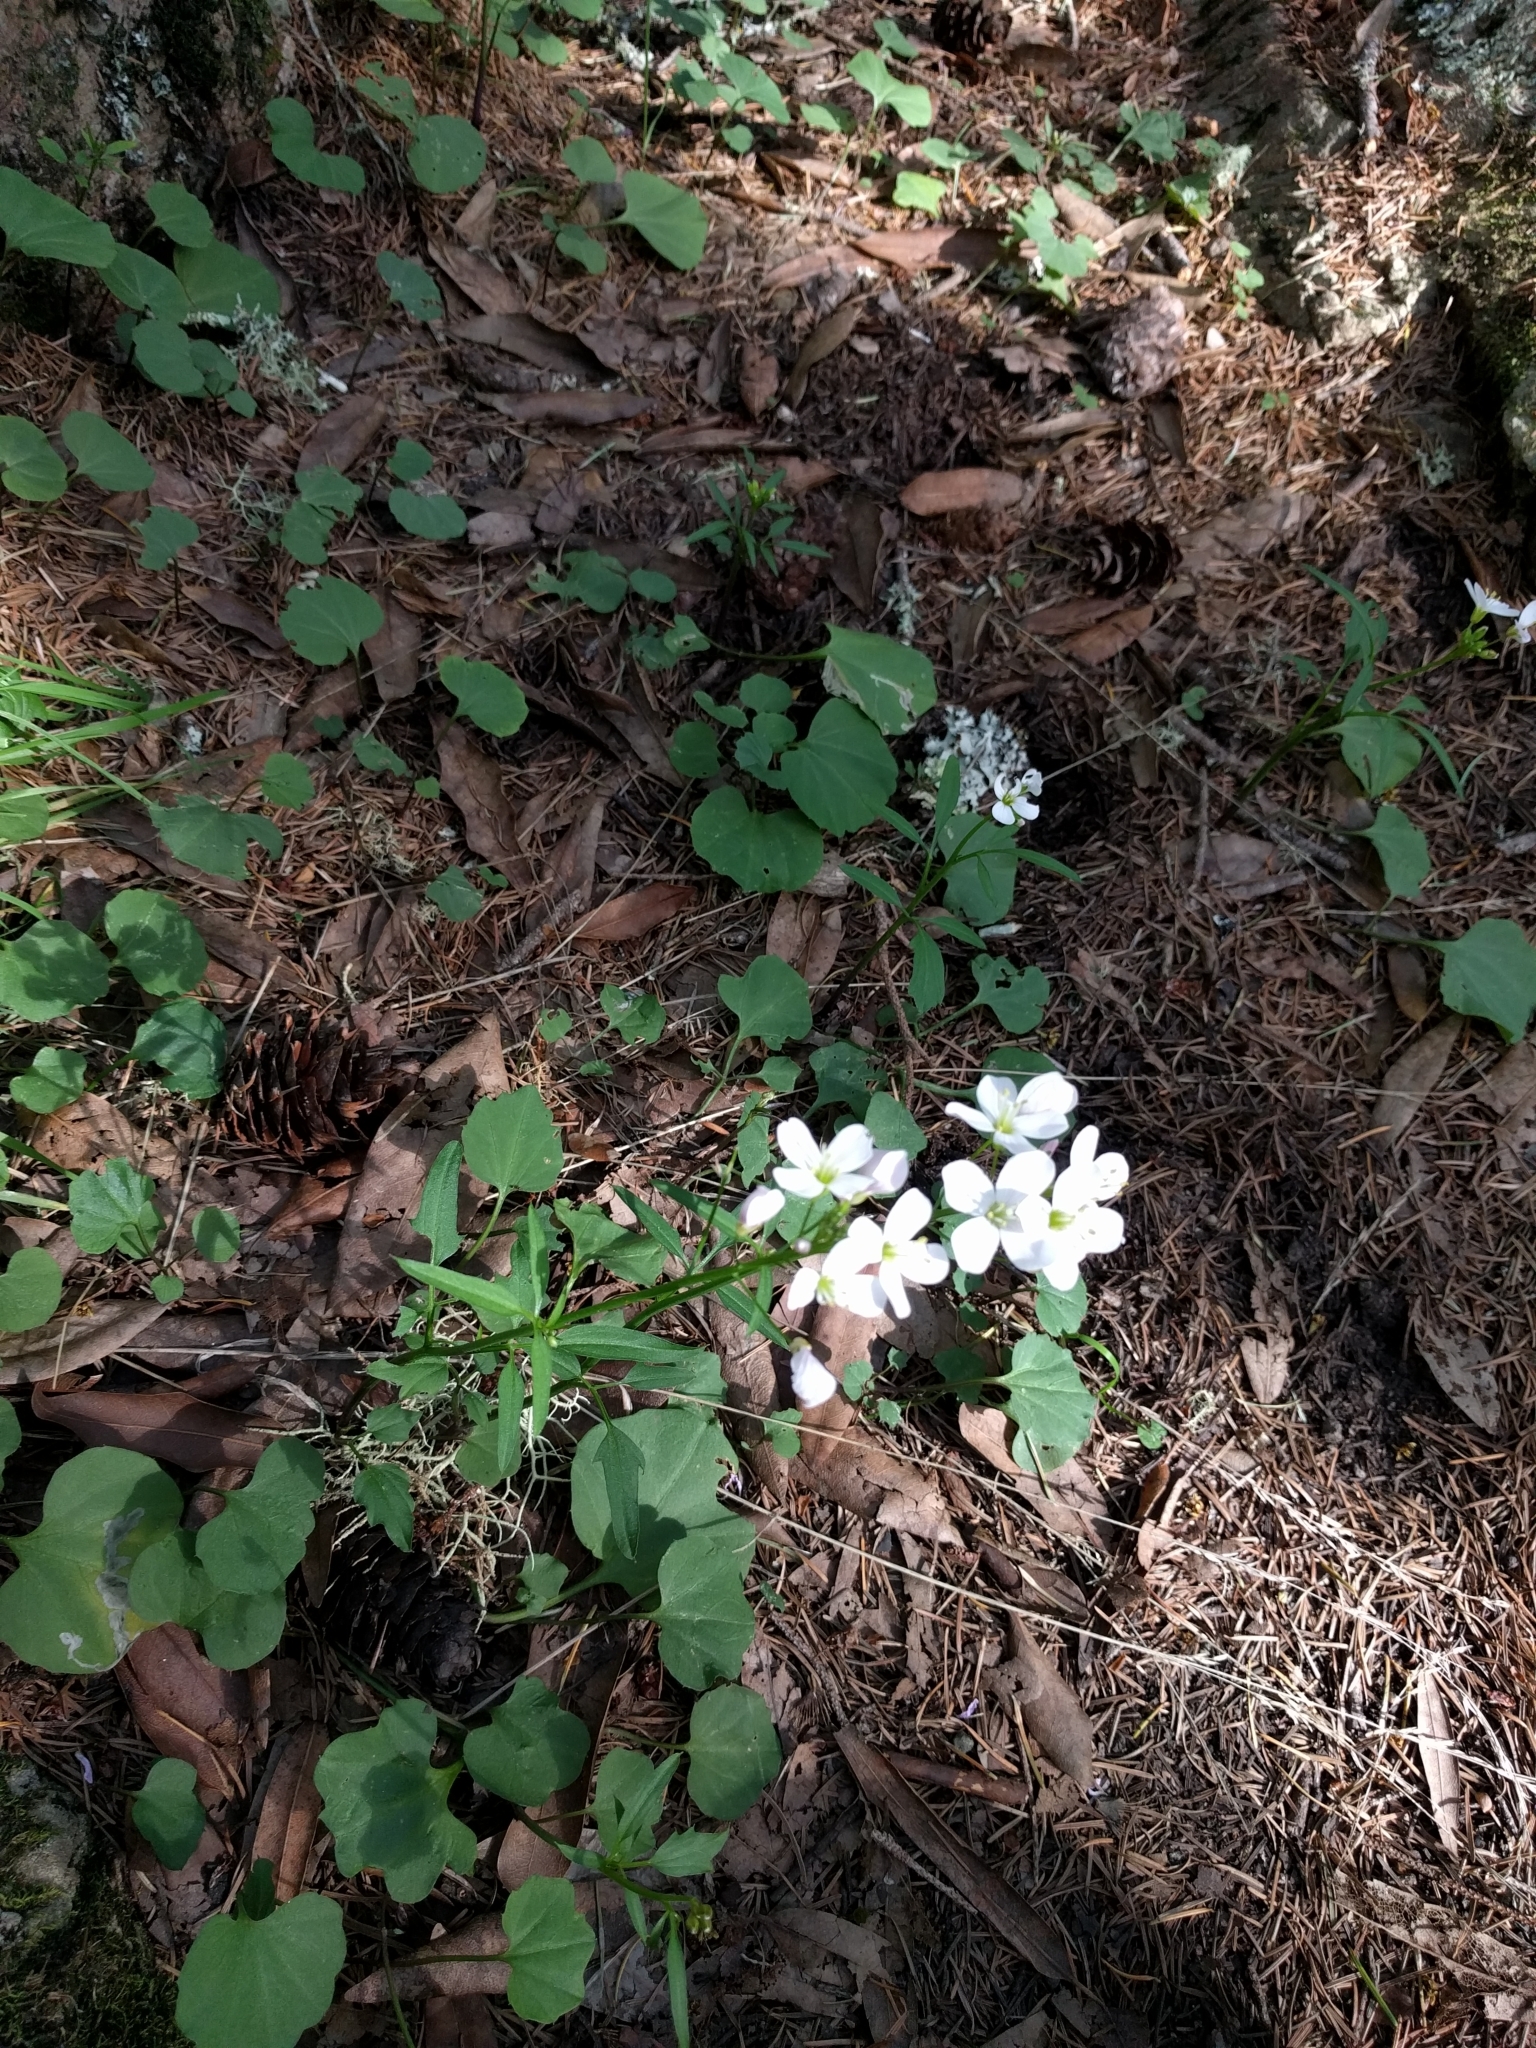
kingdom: Plantae
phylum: Tracheophyta
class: Magnoliopsida
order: Brassicales
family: Brassicaceae
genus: Cardamine
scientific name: Cardamine californica
